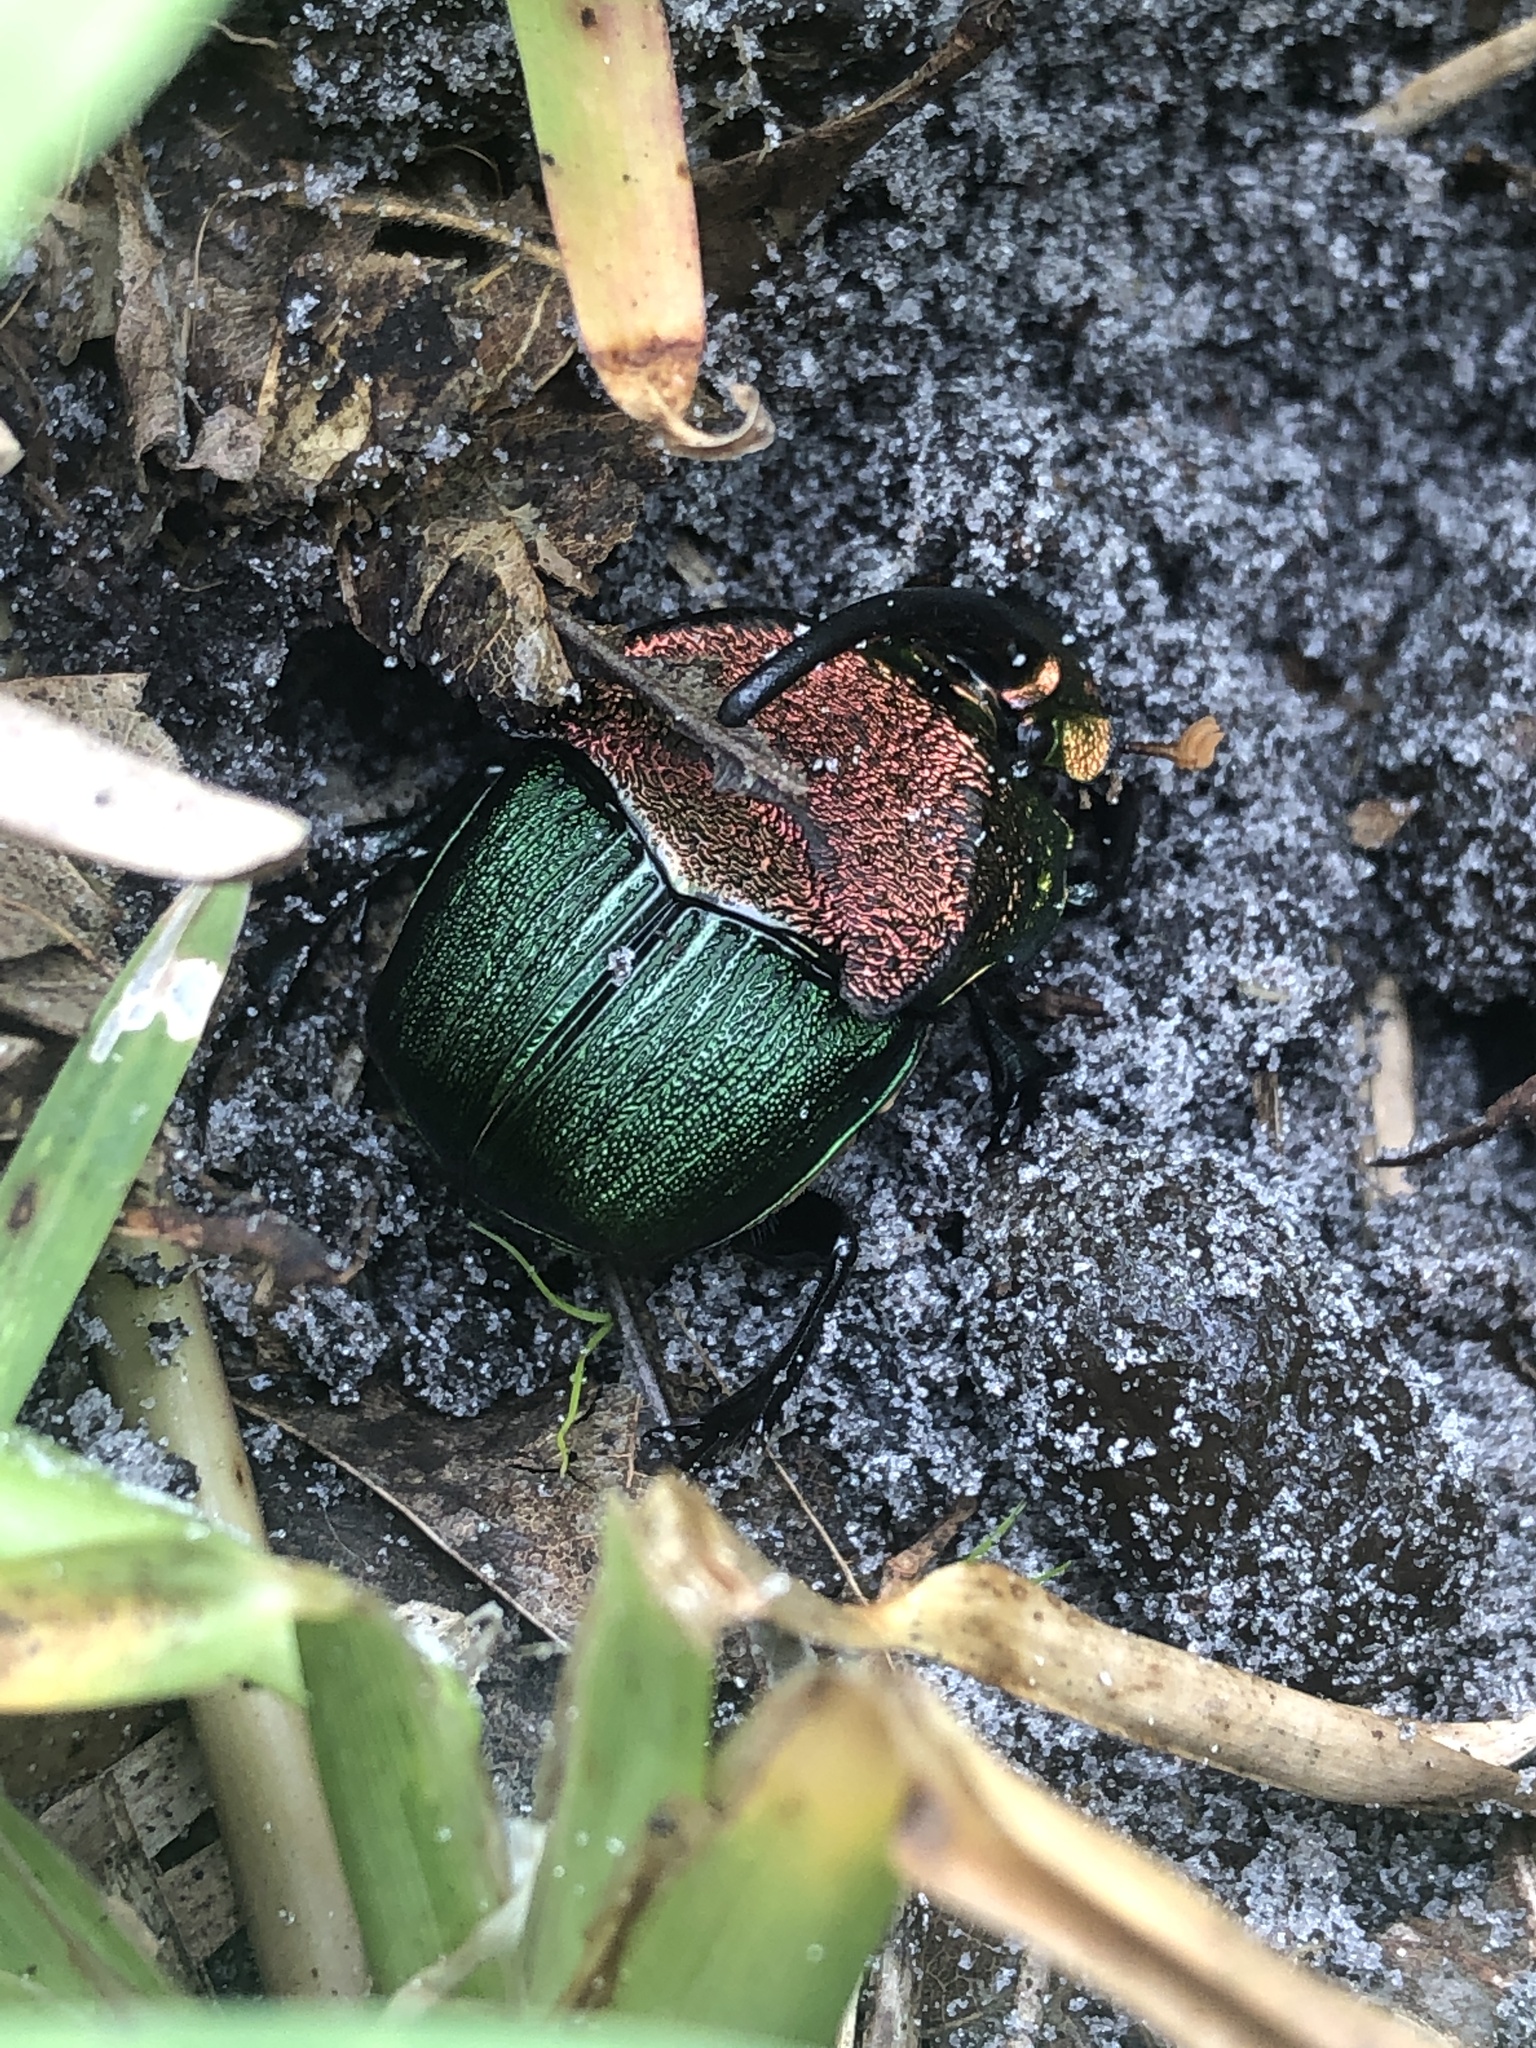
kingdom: Animalia
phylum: Arthropoda
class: Insecta
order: Coleoptera
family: Scarabaeidae
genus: Phanaeus
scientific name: Phanaeus vindex
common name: Rainbow scarab
